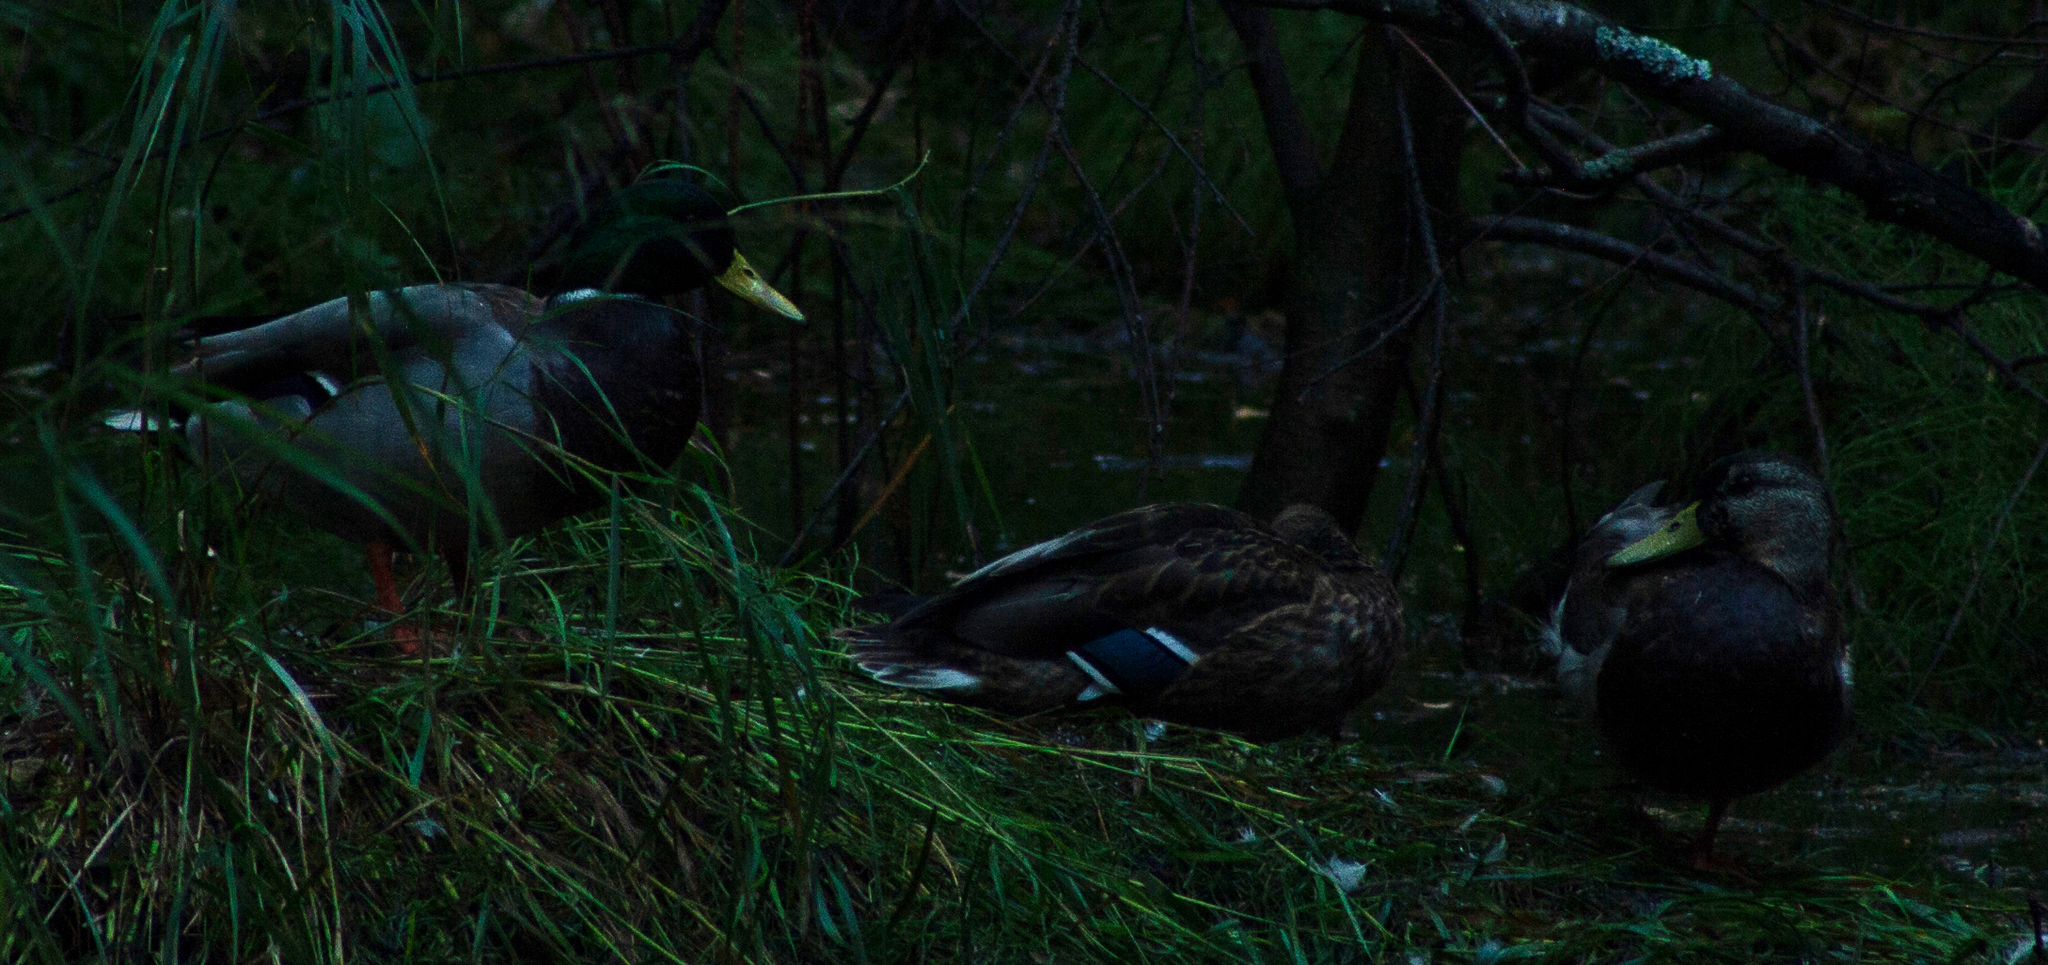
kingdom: Animalia
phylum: Chordata
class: Aves
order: Anseriformes
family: Anatidae
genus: Anas
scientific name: Anas platyrhynchos
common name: Mallard
